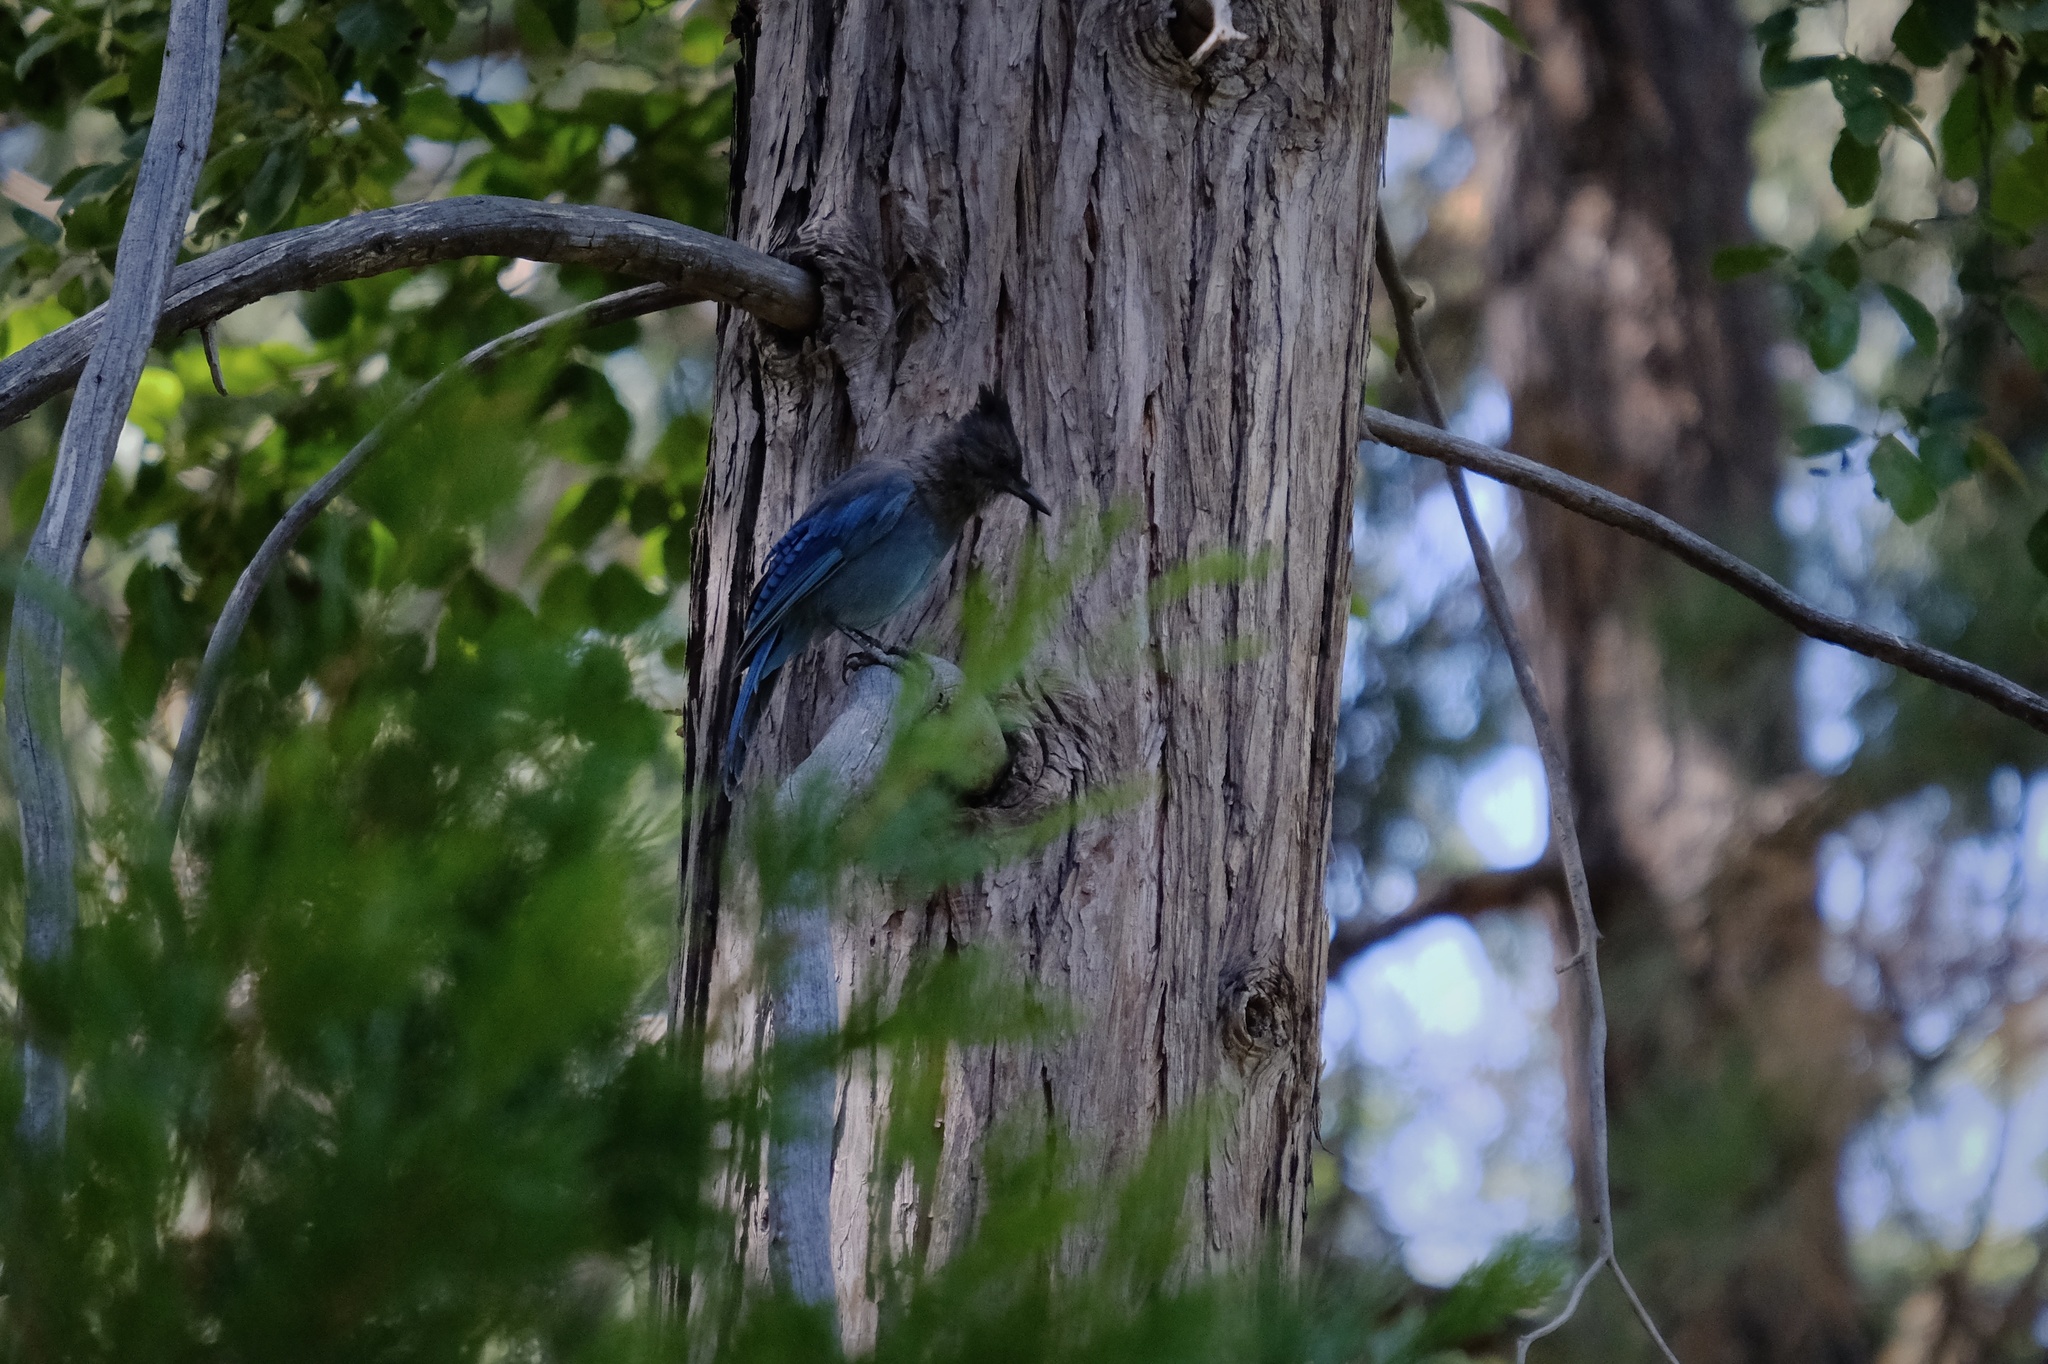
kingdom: Animalia
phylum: Chordata
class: Aves
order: Passeriformes
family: Corvidae
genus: Cyanocitta
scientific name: Cyanocitta stelleri
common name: Steller's jay
